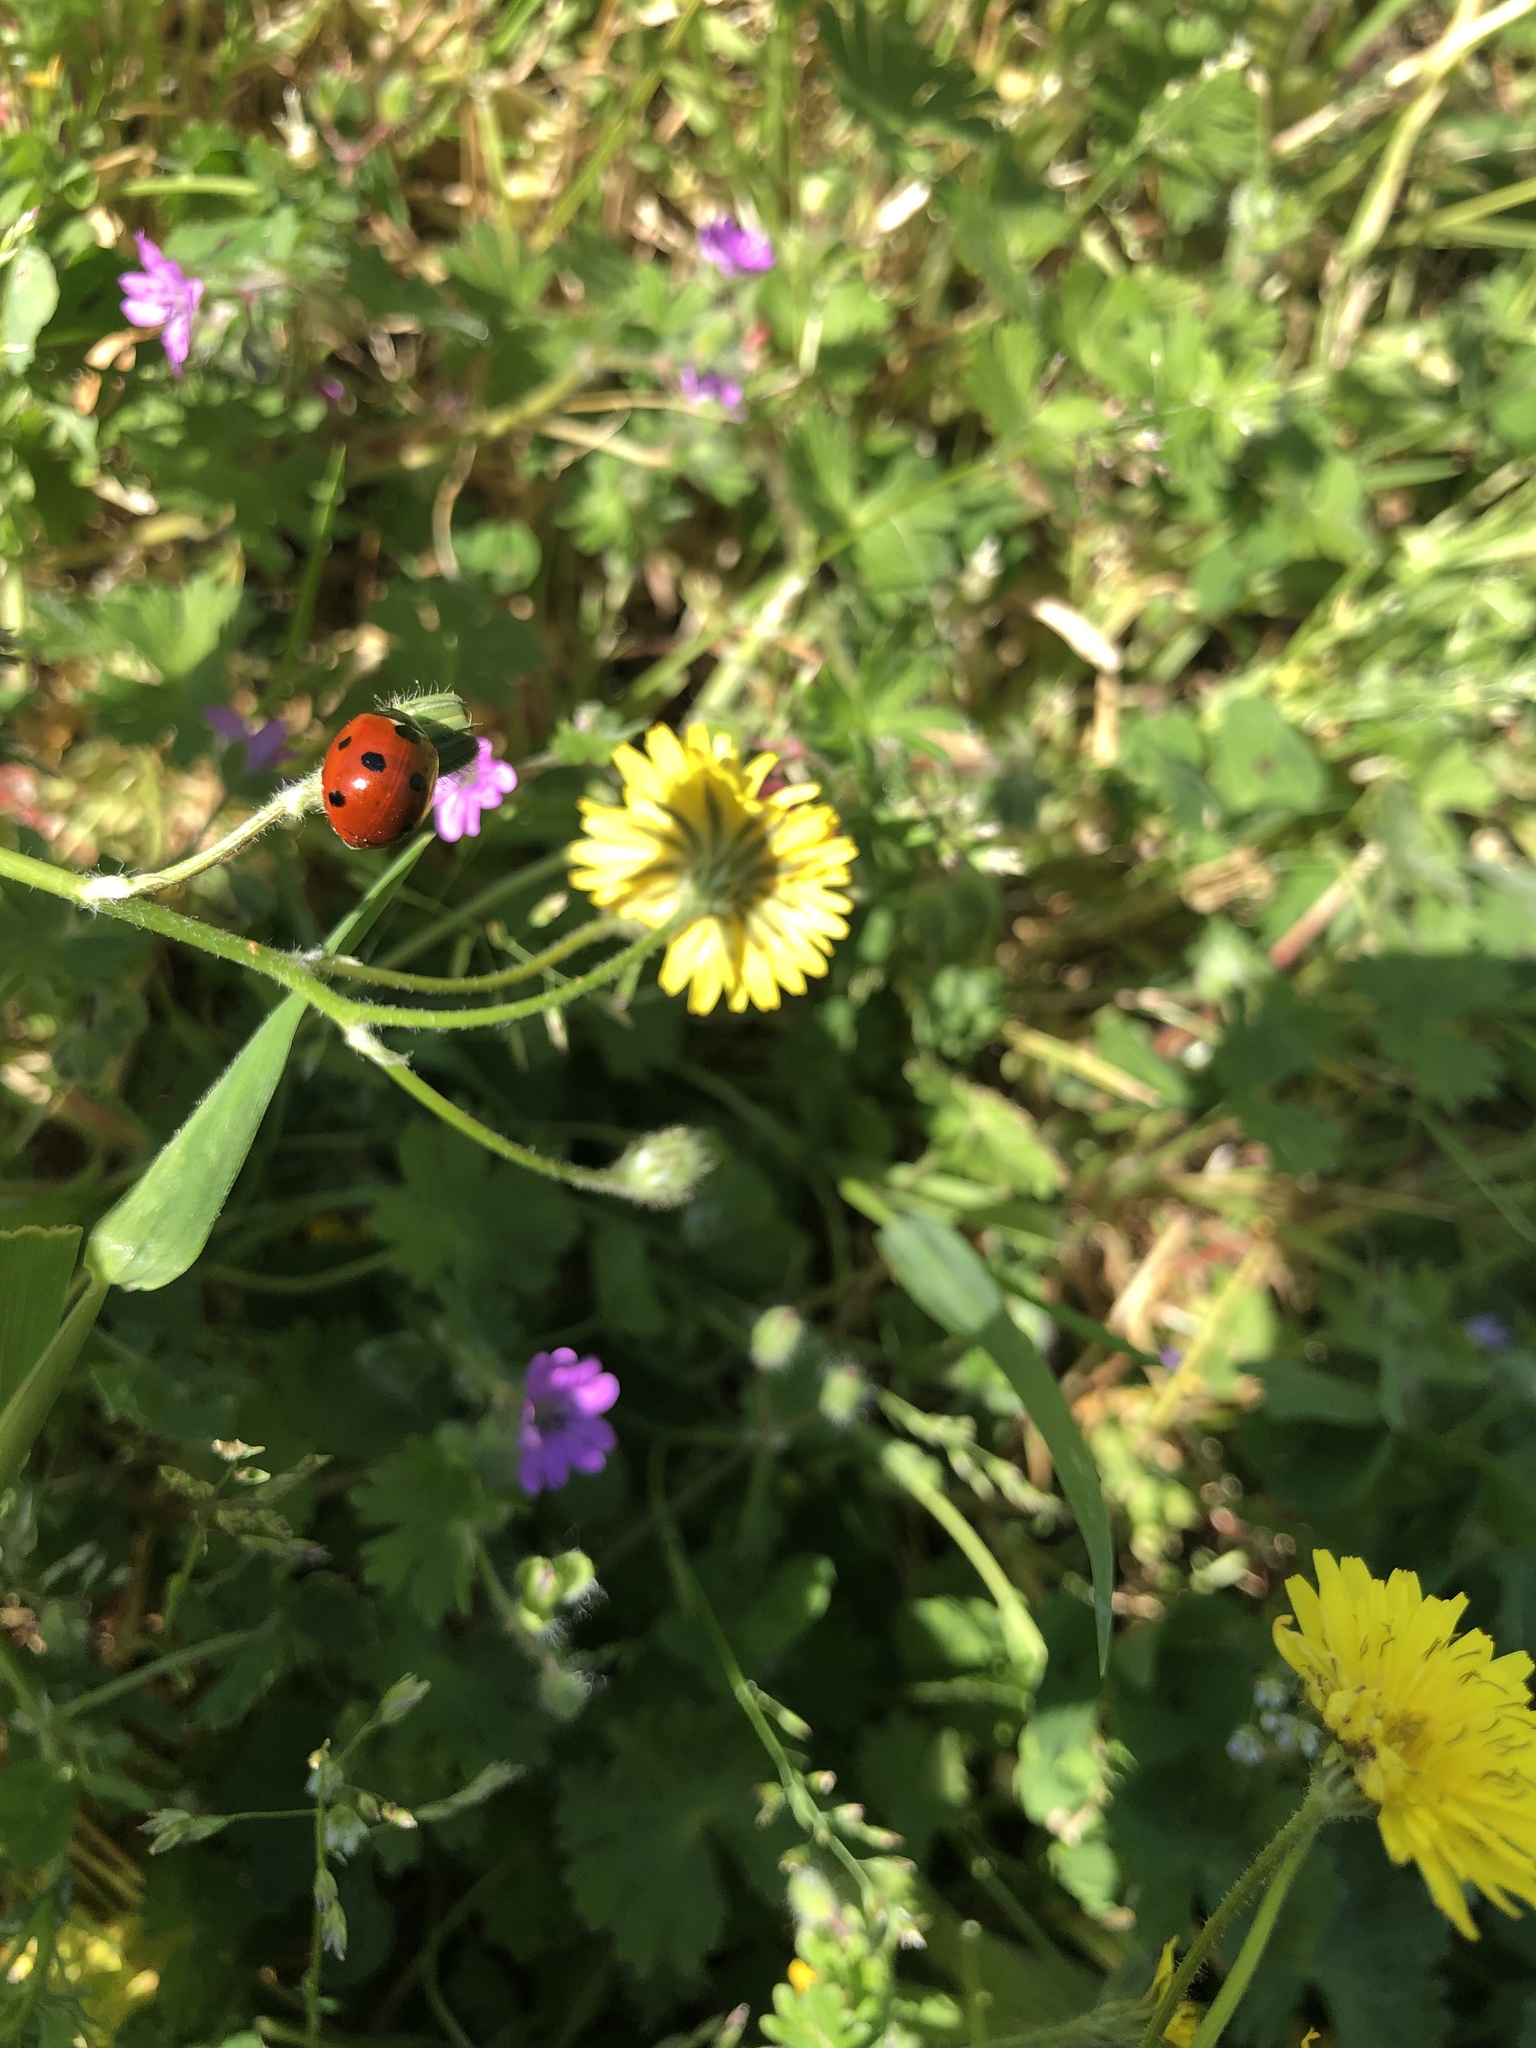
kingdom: Animalia
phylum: Arthropoda
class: Insecta
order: Coleoptera
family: Coccinellidae
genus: Coccinella
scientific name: Coccinella septempunctata
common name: Sevenspotted lady beetle
